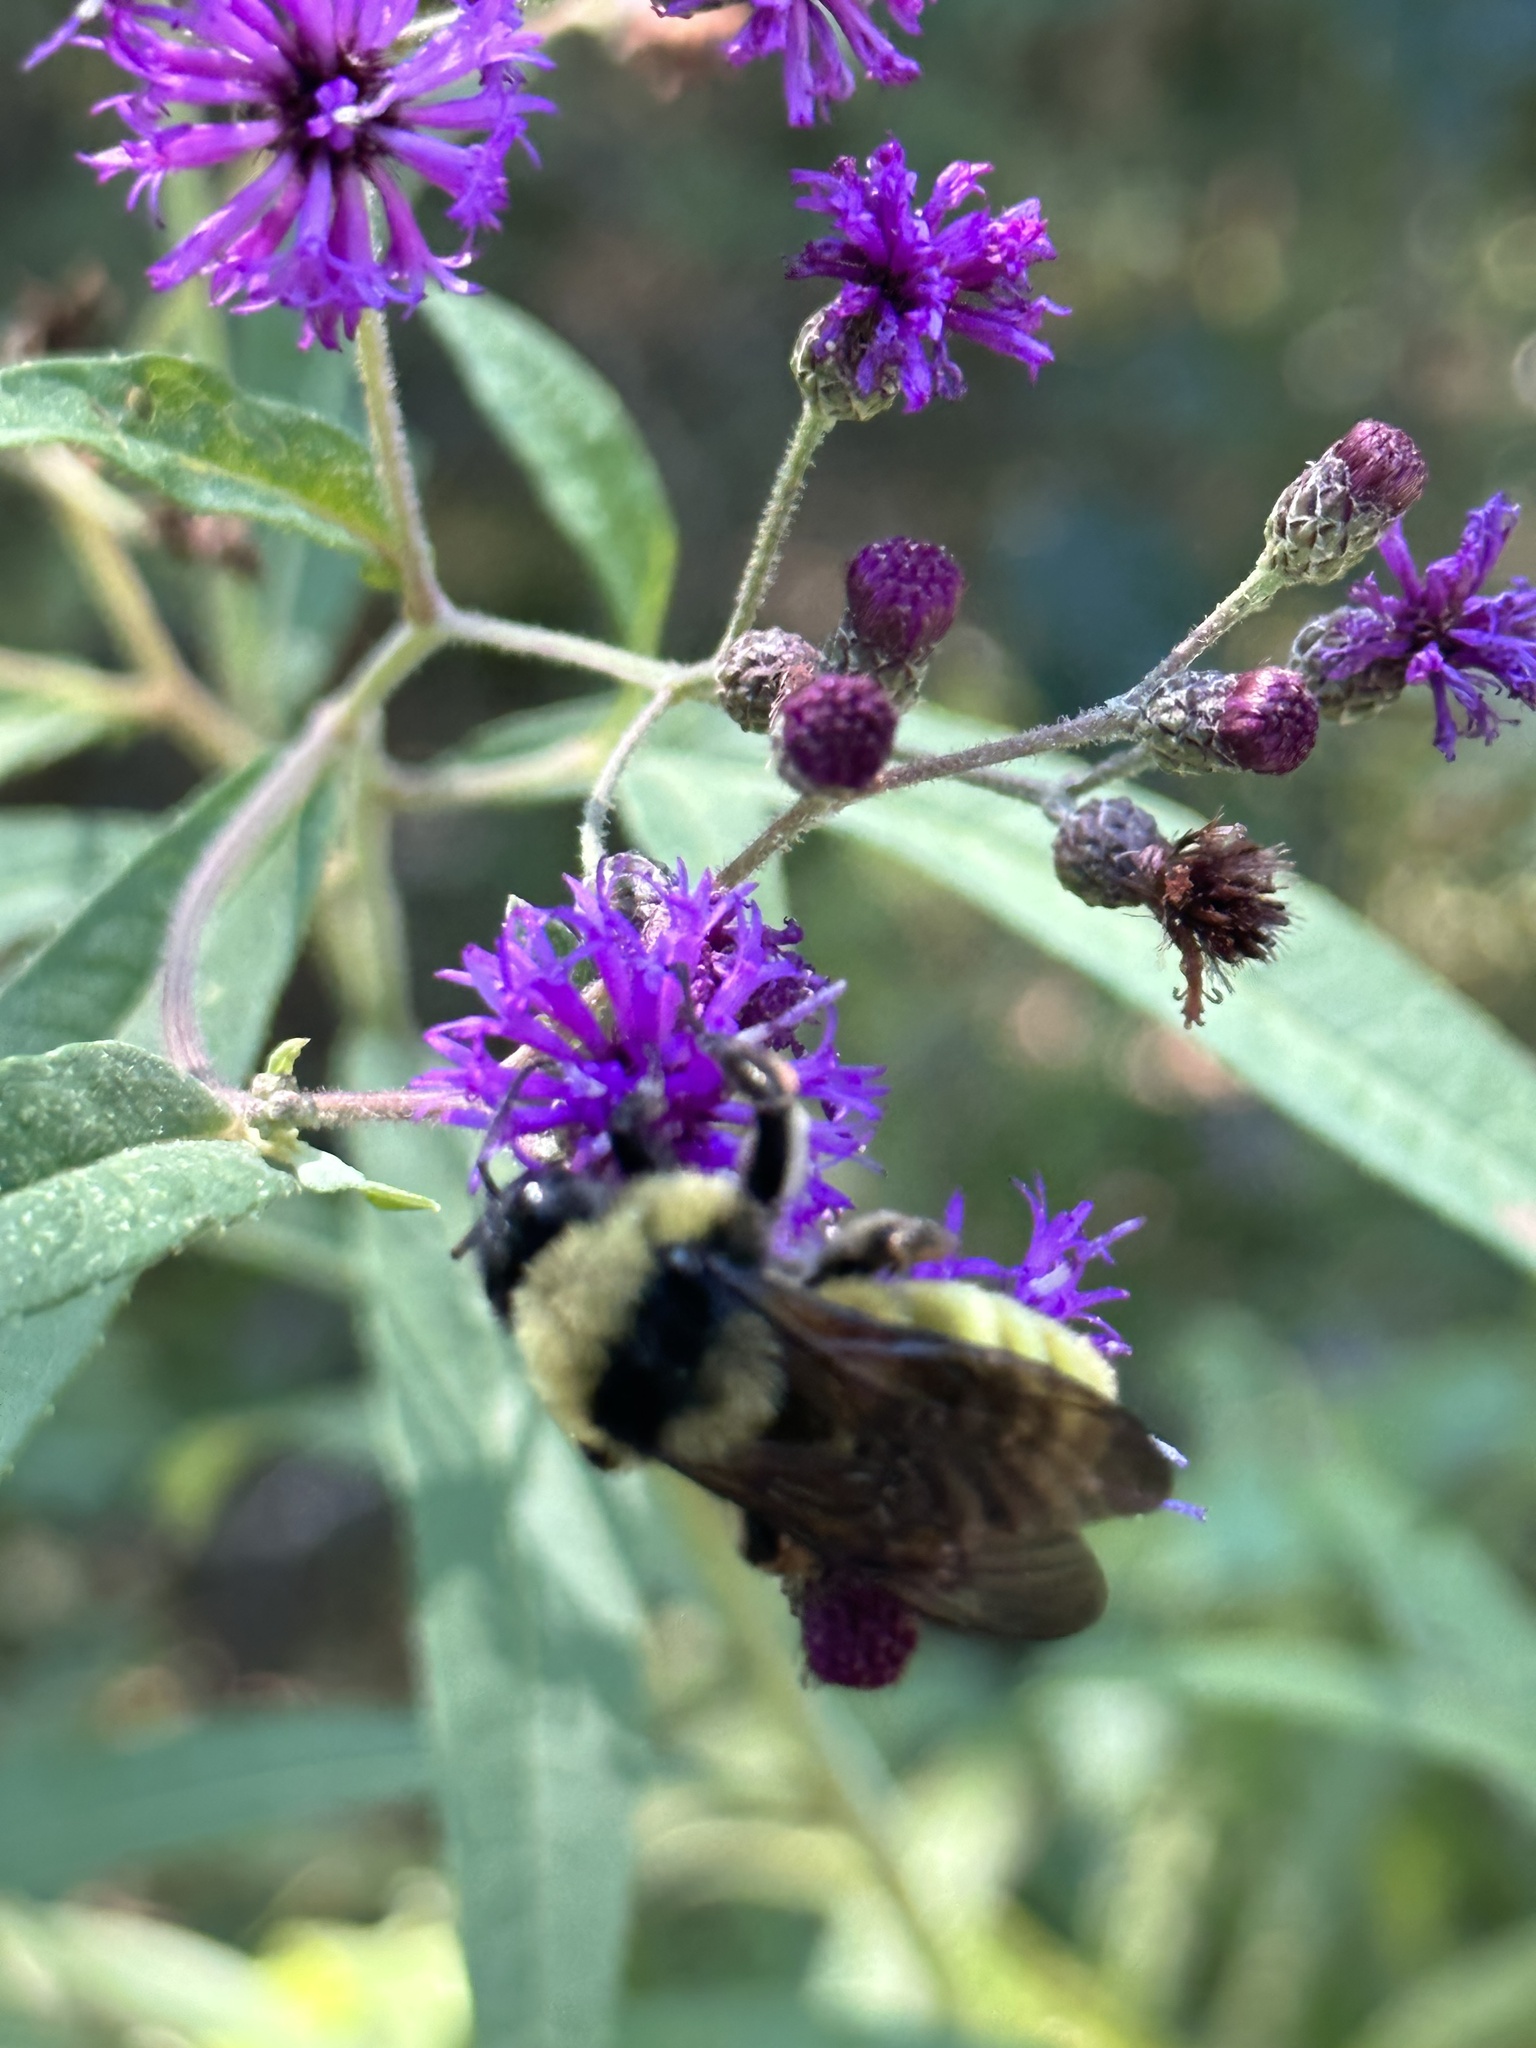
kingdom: Animalia
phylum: Arthropoda
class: Insecta
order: Hymenoptera
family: Apidae
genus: Bombus
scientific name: Bombus pensylvanicus
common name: Bumble bee
